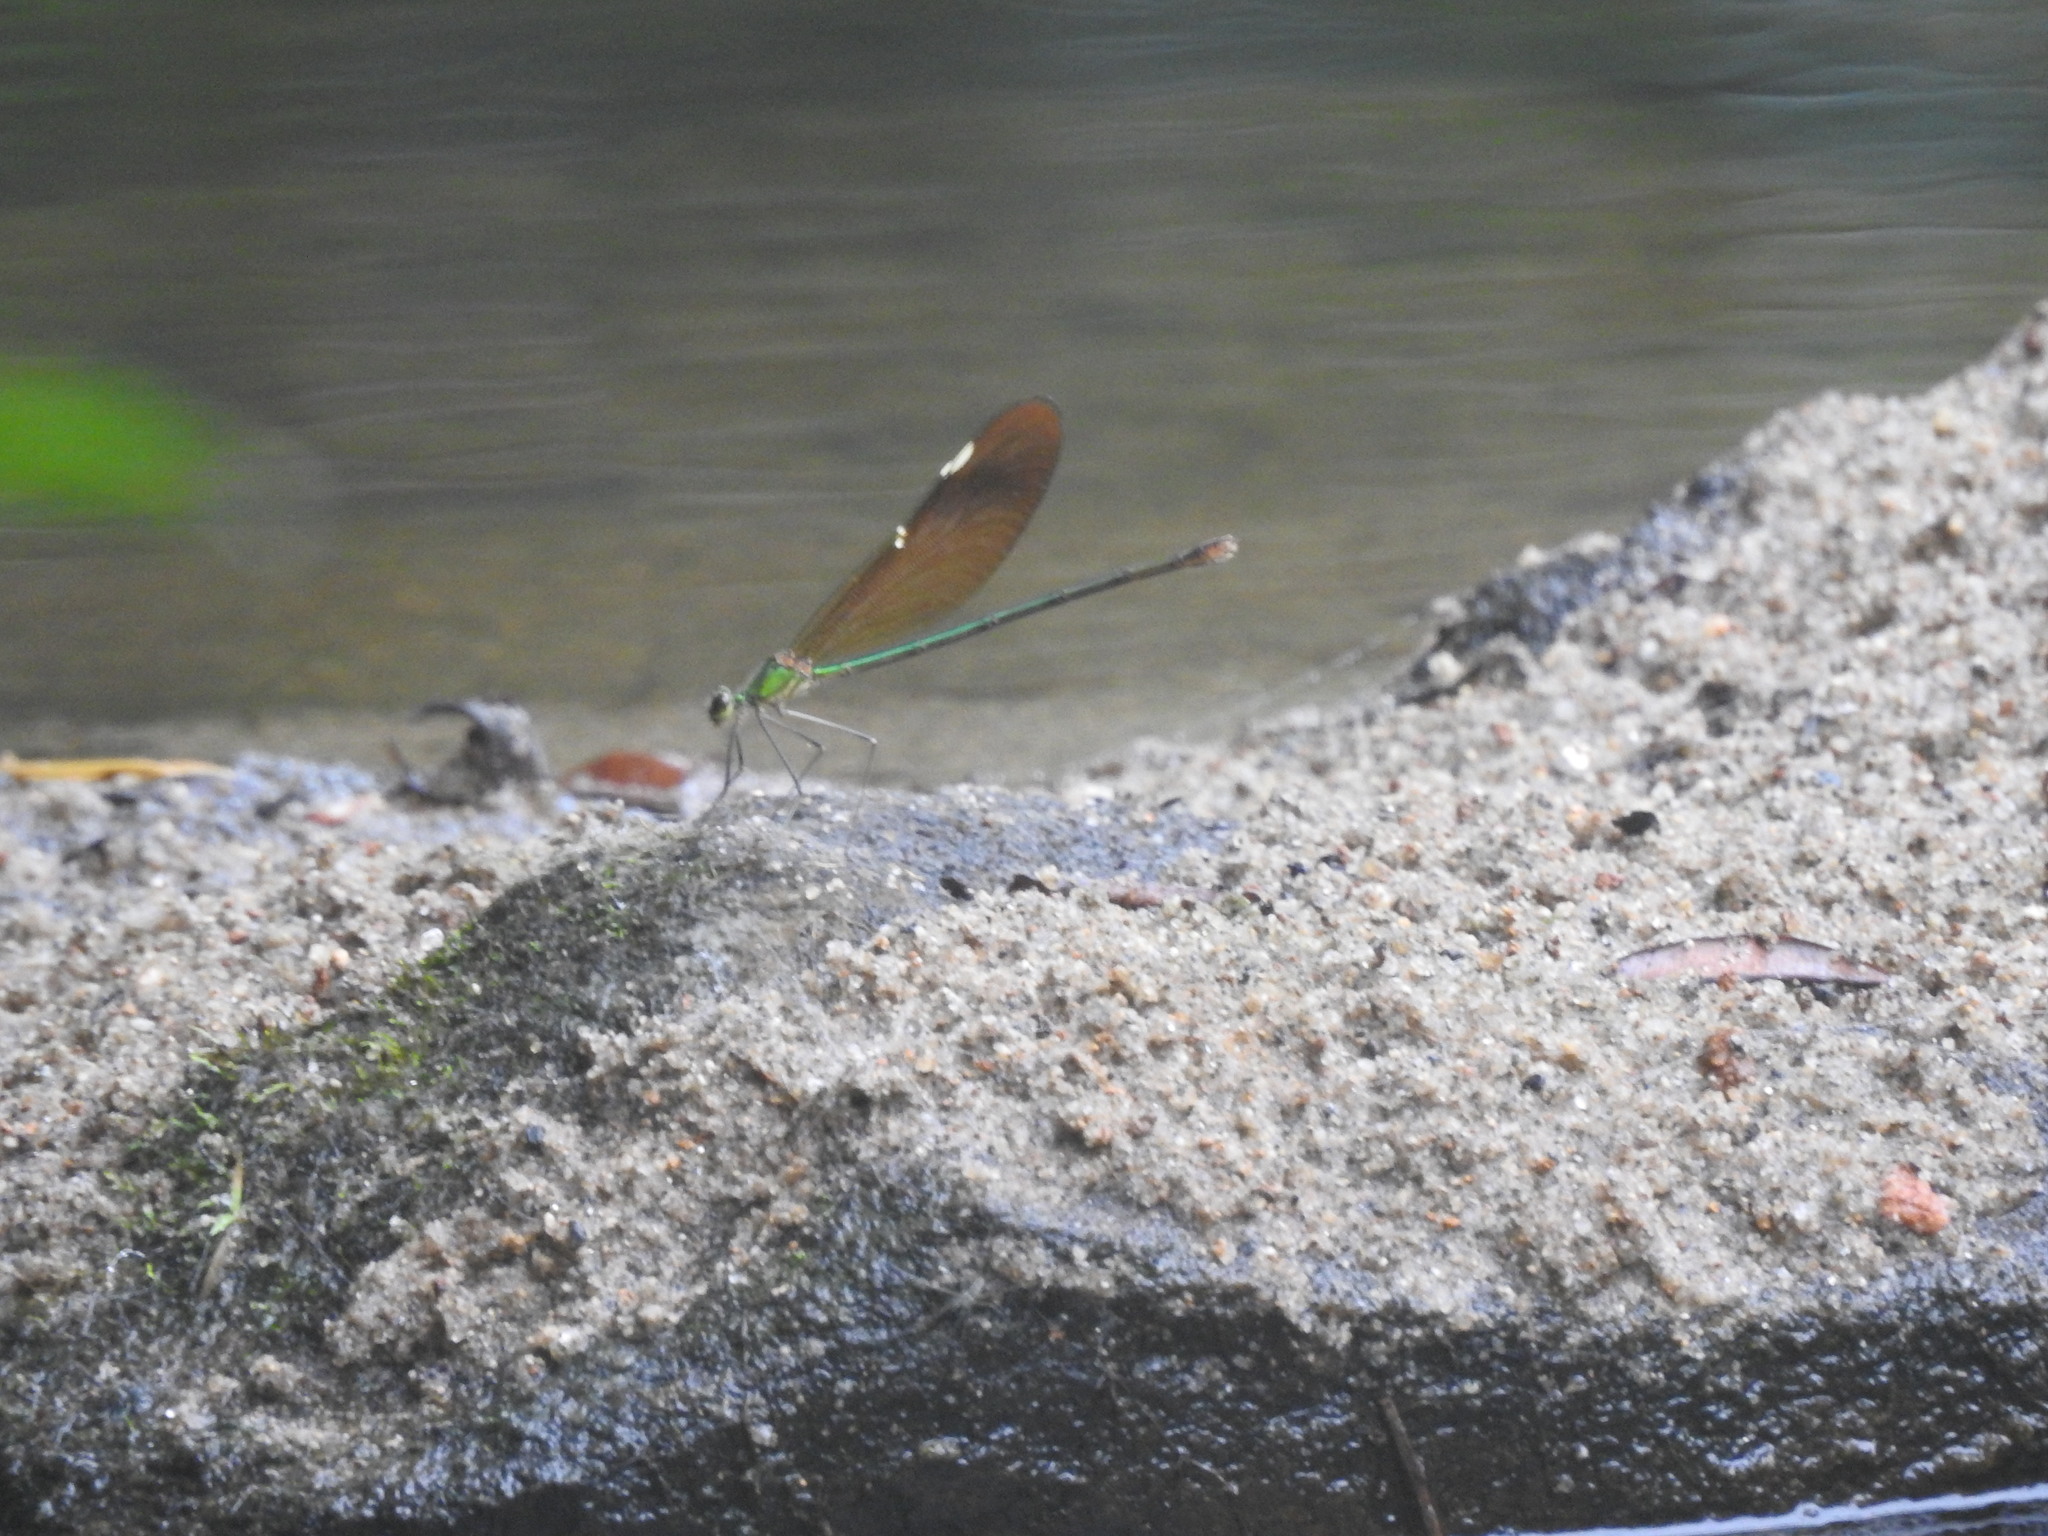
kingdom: Animalia
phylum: Arthropoda
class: Insecta
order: Odonata
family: Calopterygidae
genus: Neurobasis
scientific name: Neurobasis chinensis
